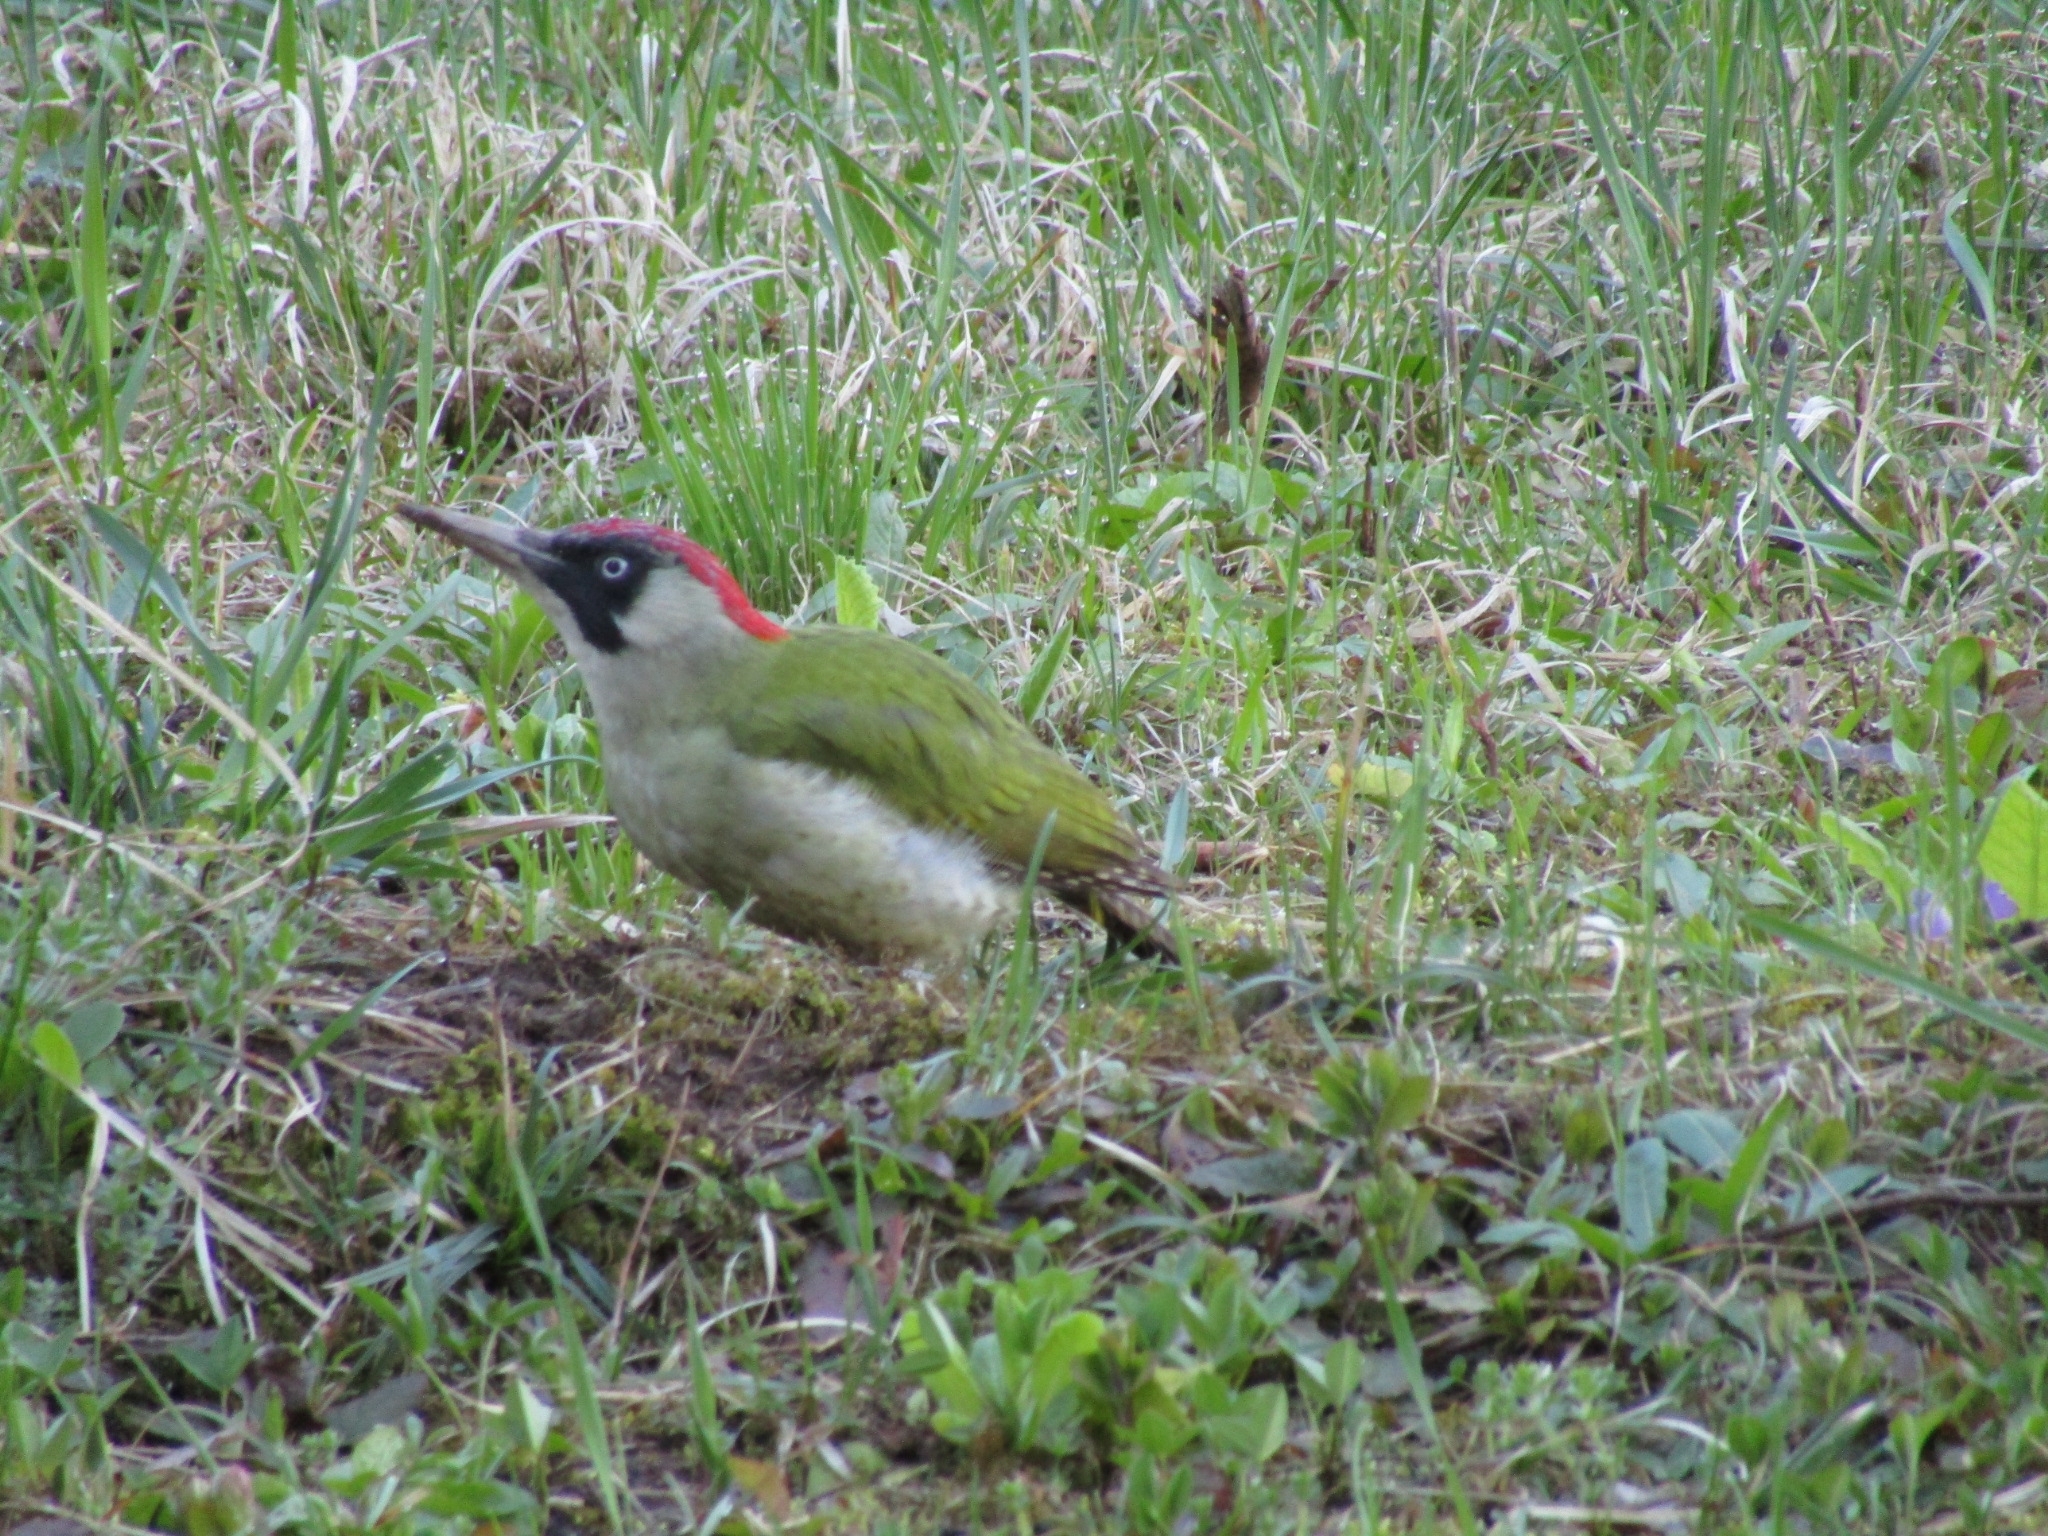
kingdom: Animalia
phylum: Chordata
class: Aves
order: Piciformes
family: Picidae
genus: Picus
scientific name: Picus viridis
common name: European green woodpecker
